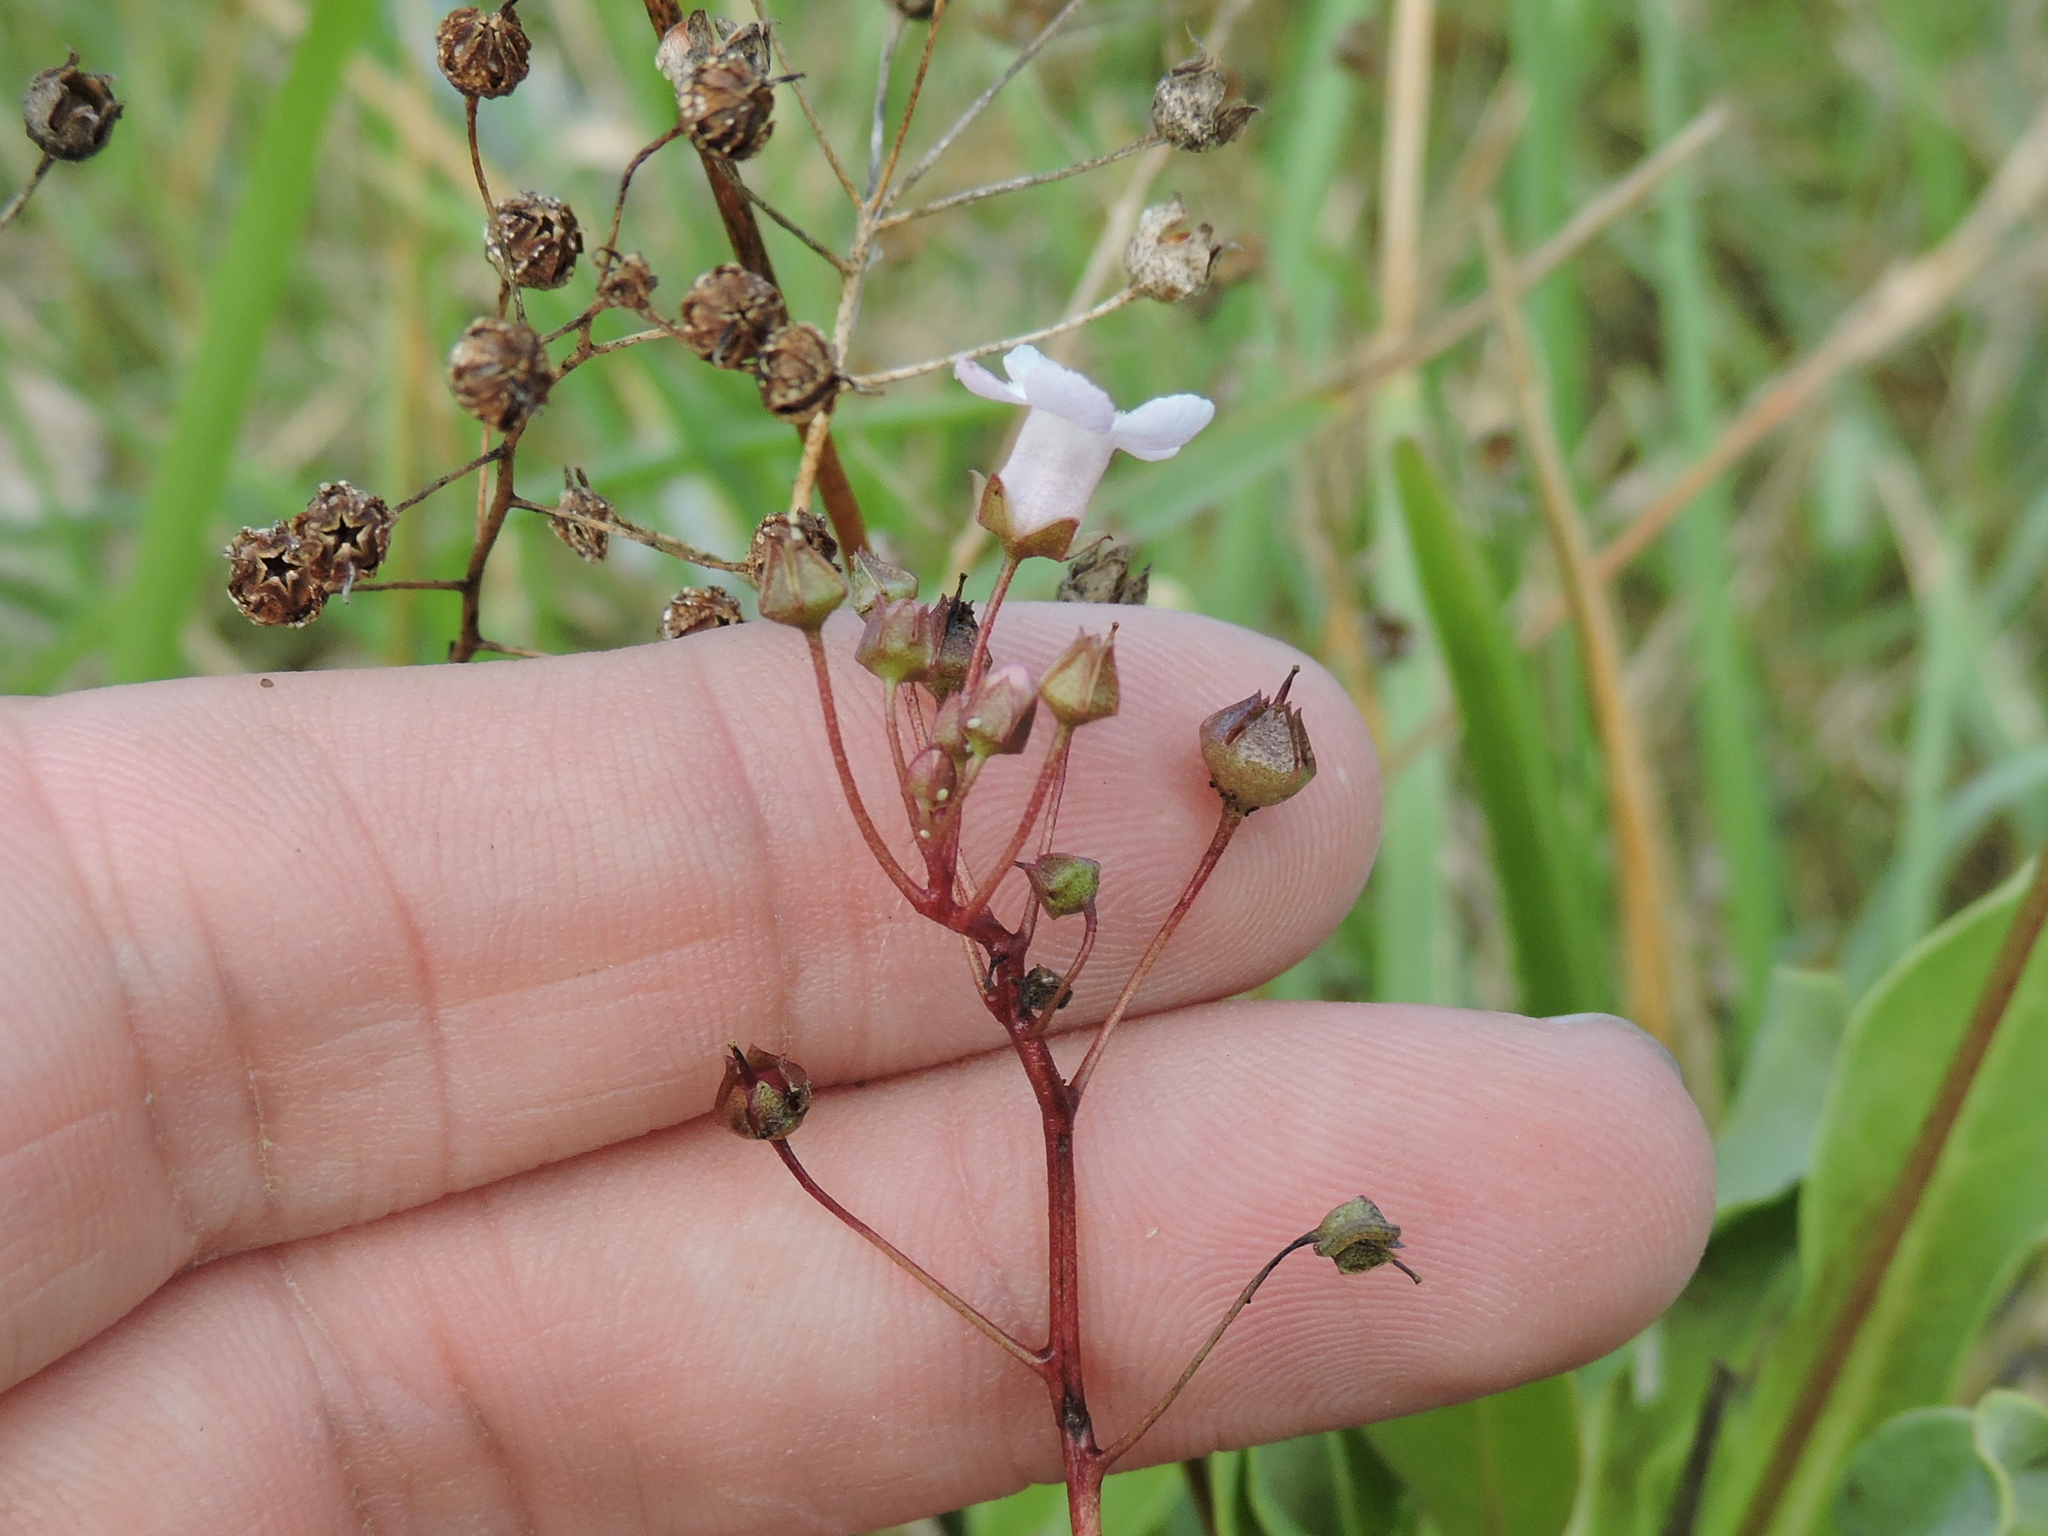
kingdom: Plantae
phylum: Tracheophyta
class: Magnoliopsida
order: Ericales
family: Primulaceae
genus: Samolus
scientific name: Samolus ebracteatus
